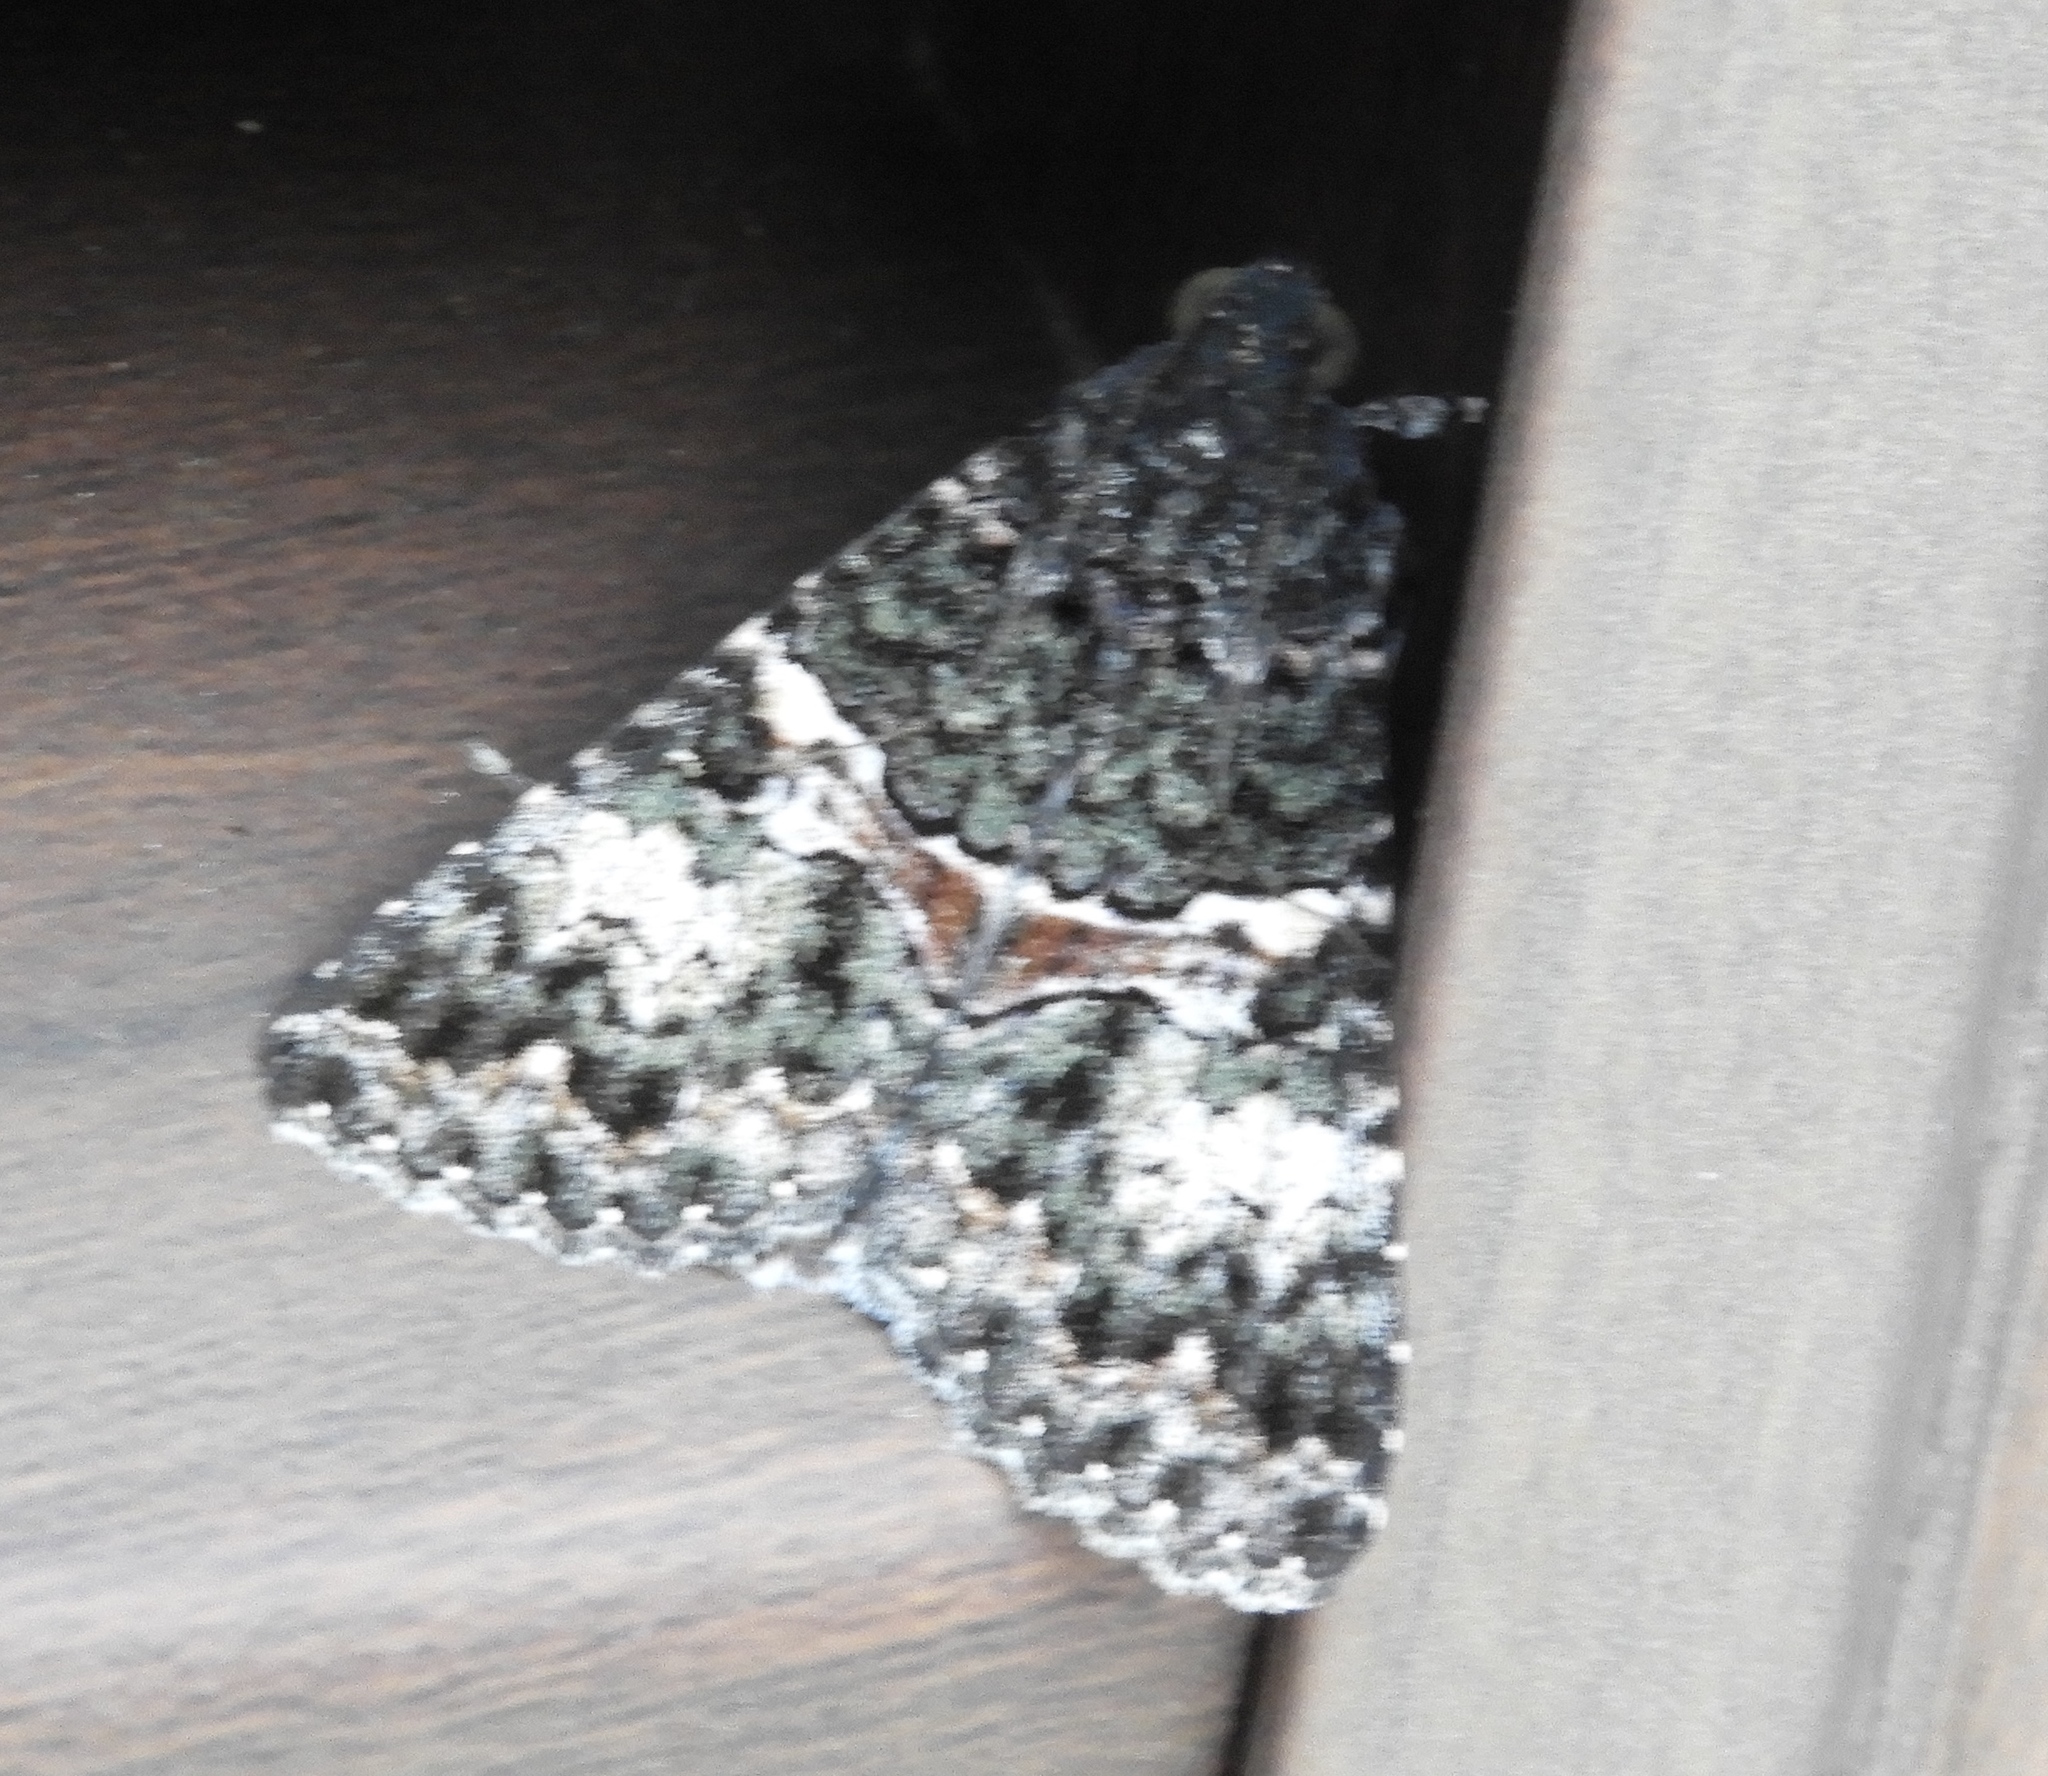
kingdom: Animalia
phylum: Arthropoda
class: Insecta
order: Lepidoptera
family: Erebidae
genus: Melipotis
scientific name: Melipotis punctifinis
